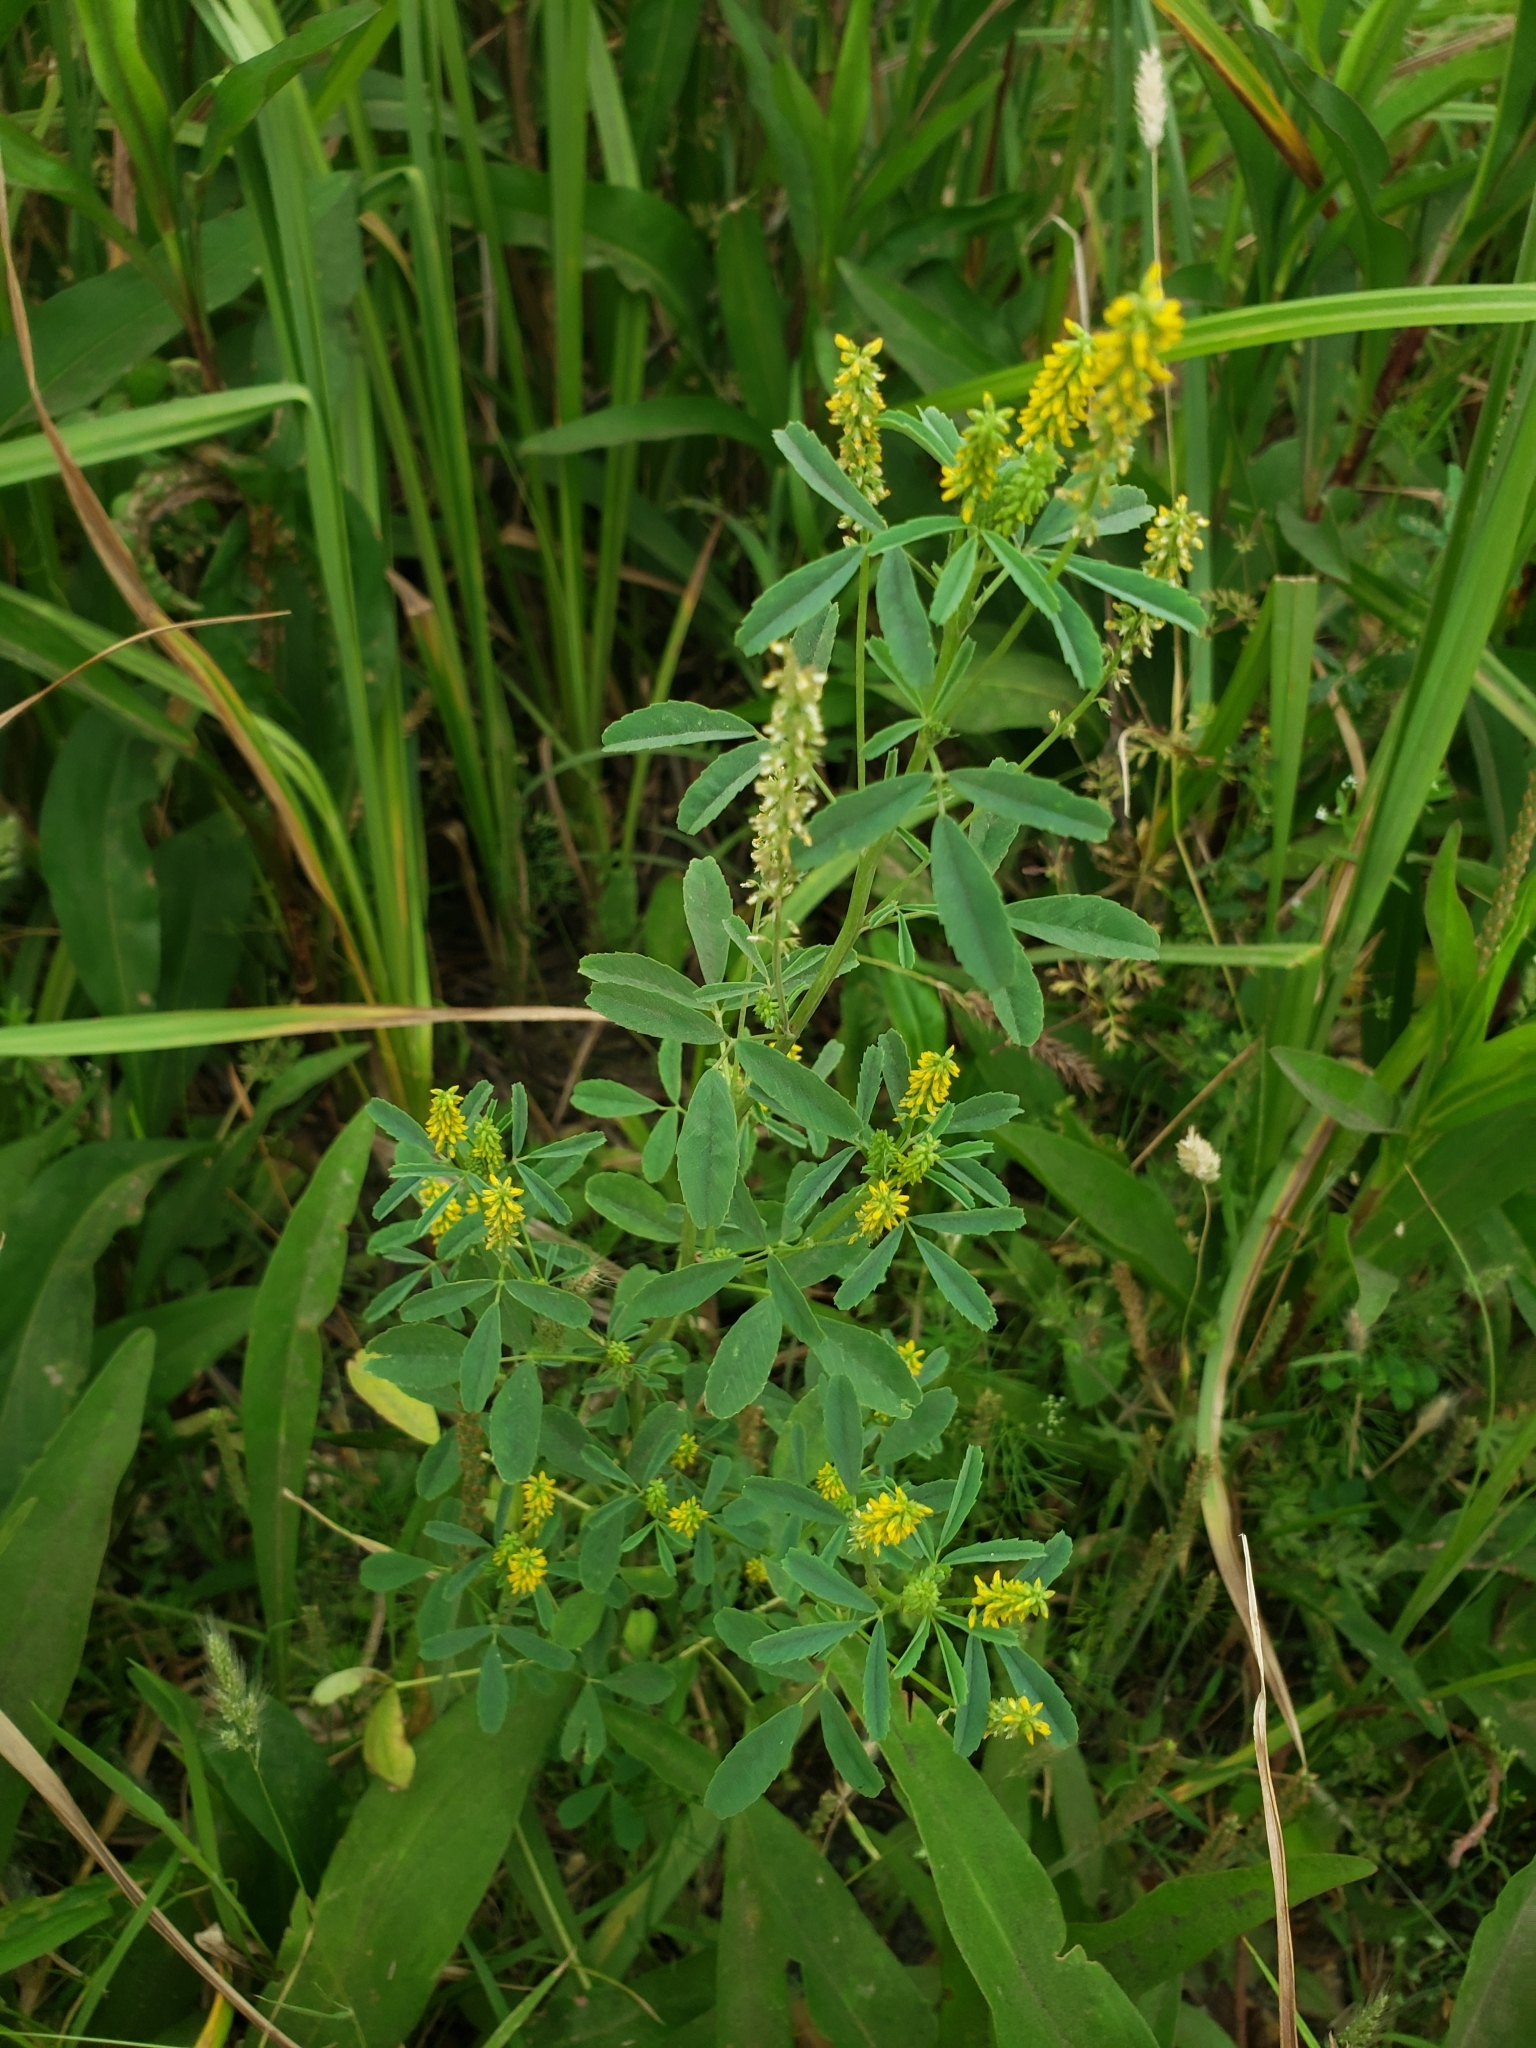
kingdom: Plantae
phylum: Tracheophyta
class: Magnoliopsida
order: Fabales
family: Fabaceae
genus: Melilotus
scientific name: Melilotus indicus
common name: Small melilot
